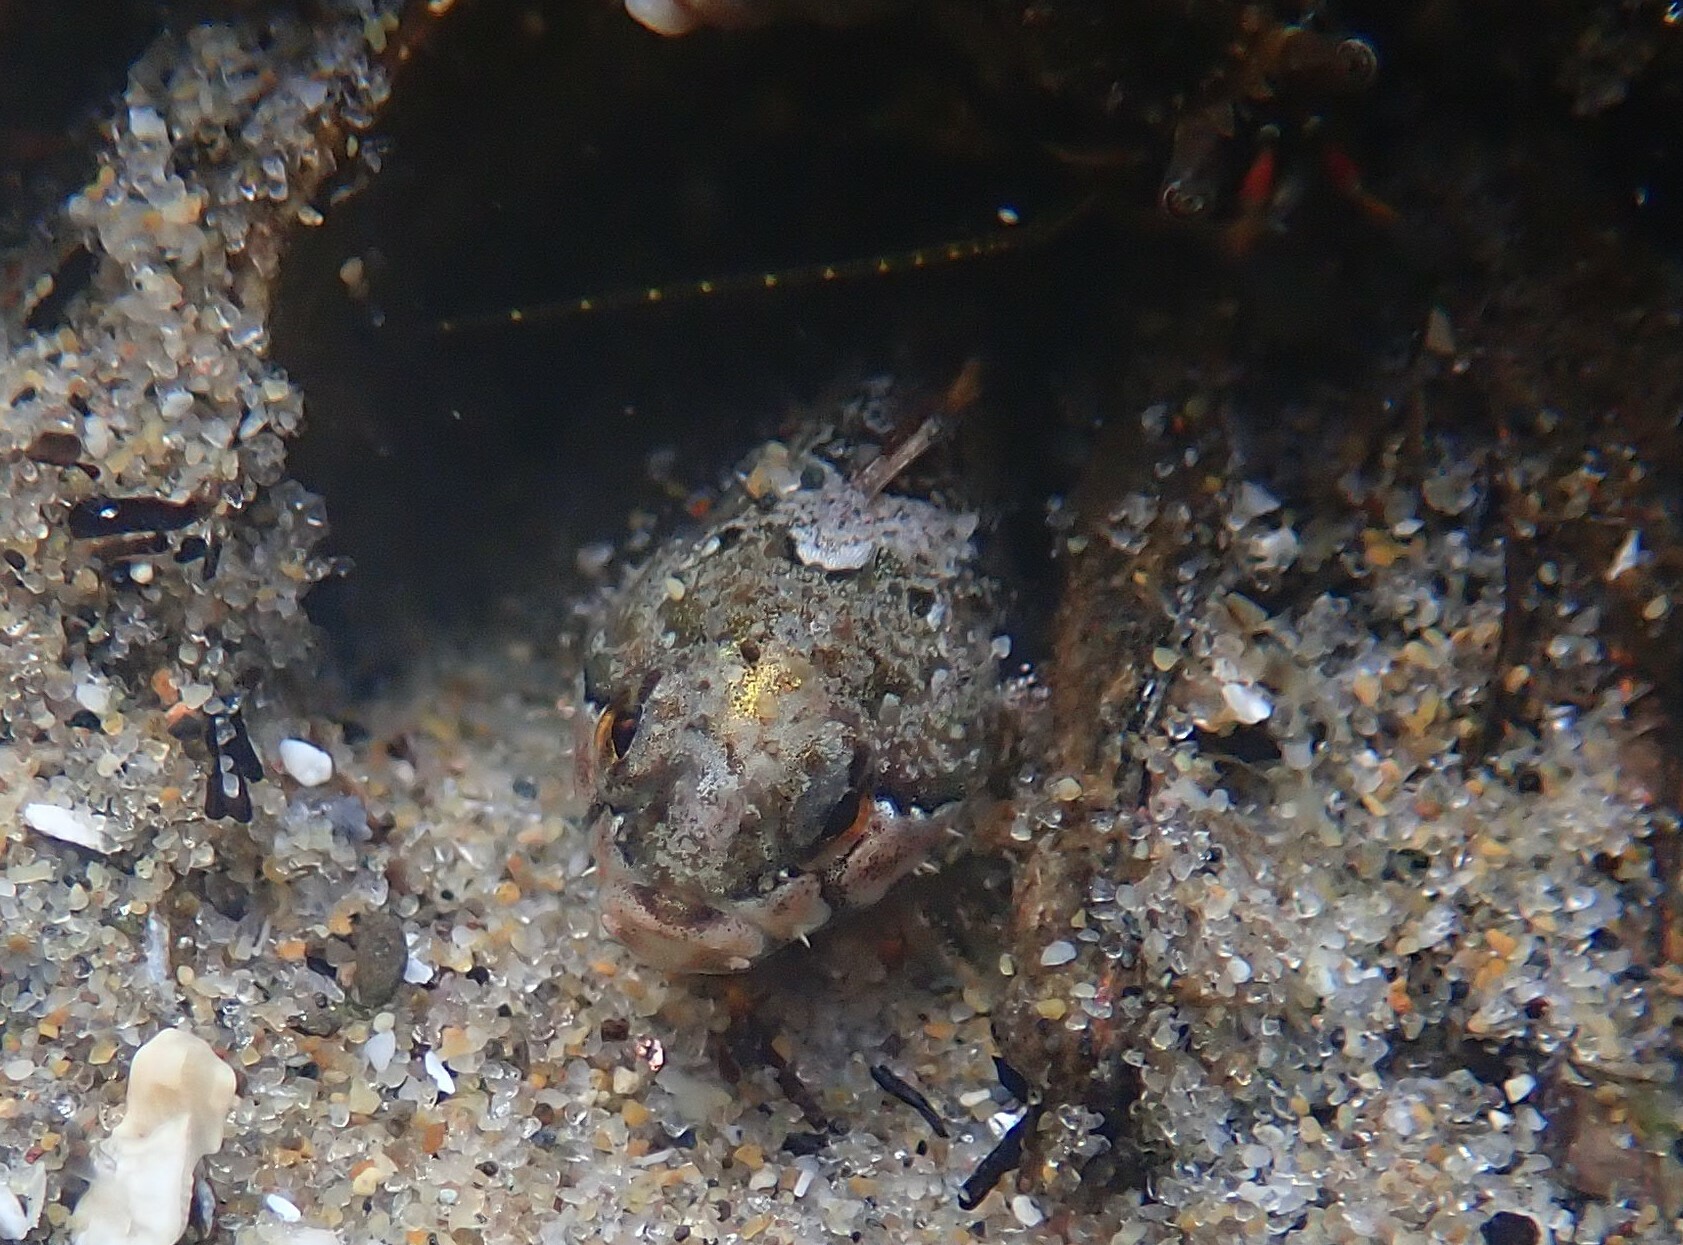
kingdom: Animalia
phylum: Chordata
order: Scorpaeniformes
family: Cottidae
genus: Oligocottus
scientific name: Oligocottus snyderi
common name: Fluffy sculpin
